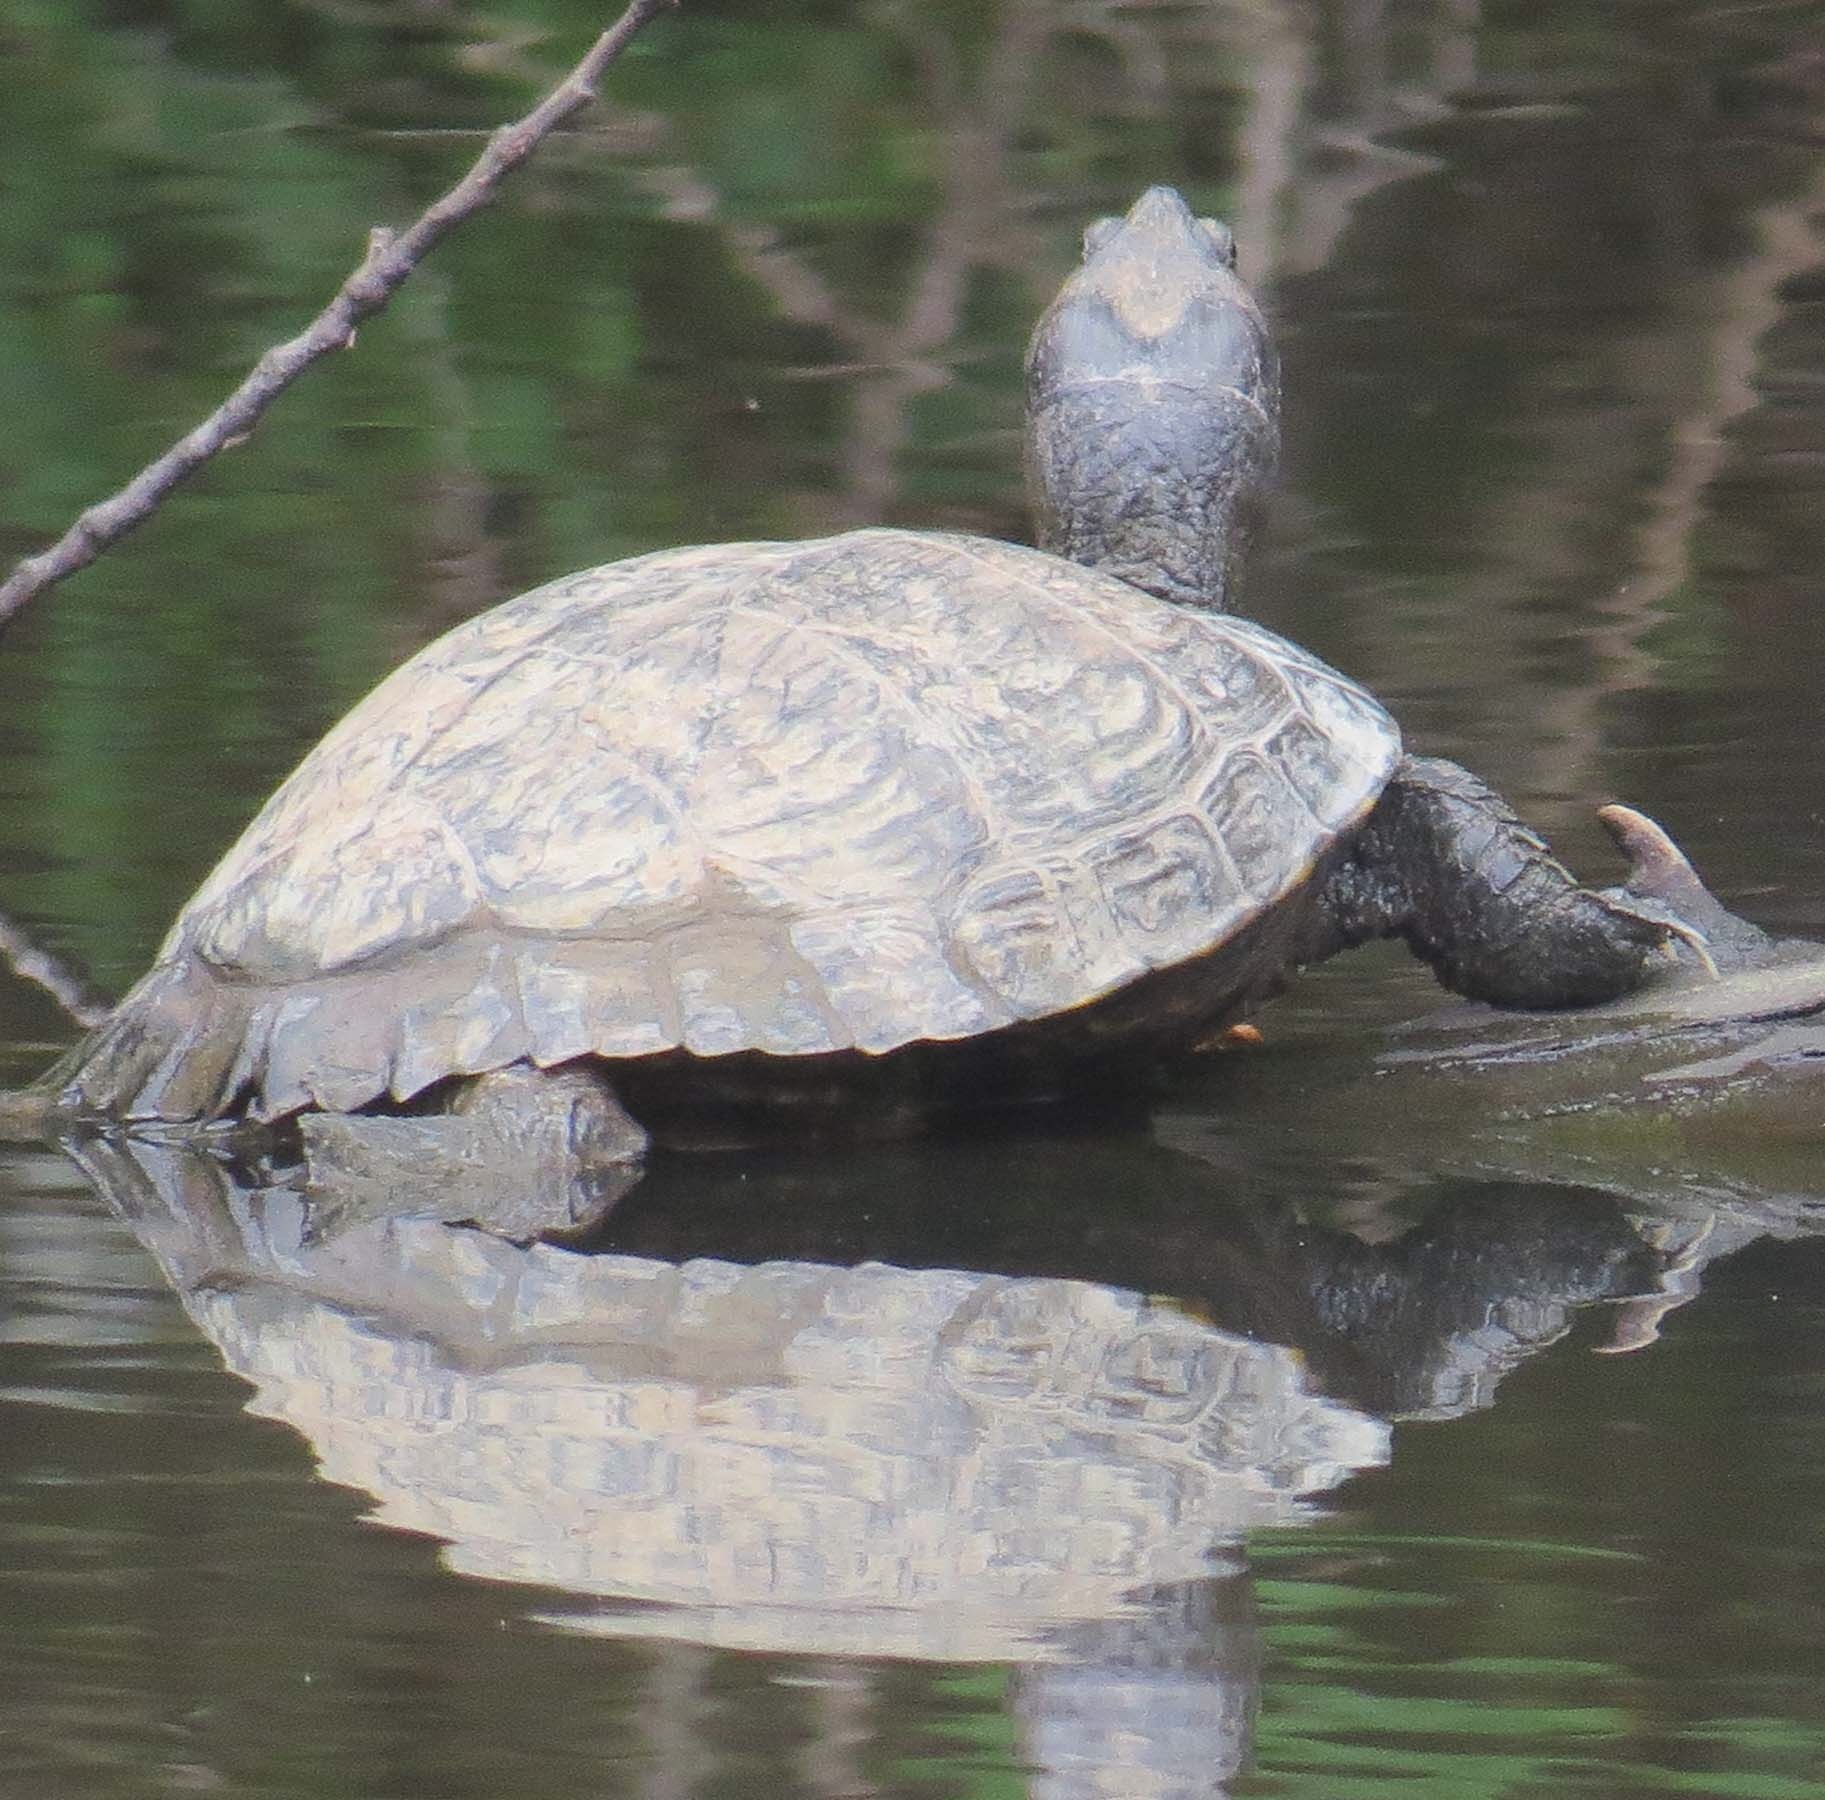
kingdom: Animalia
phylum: Chordata
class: Testudines
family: Emydidae
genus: Trachemys
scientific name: Trachemys scripta
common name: Slider
